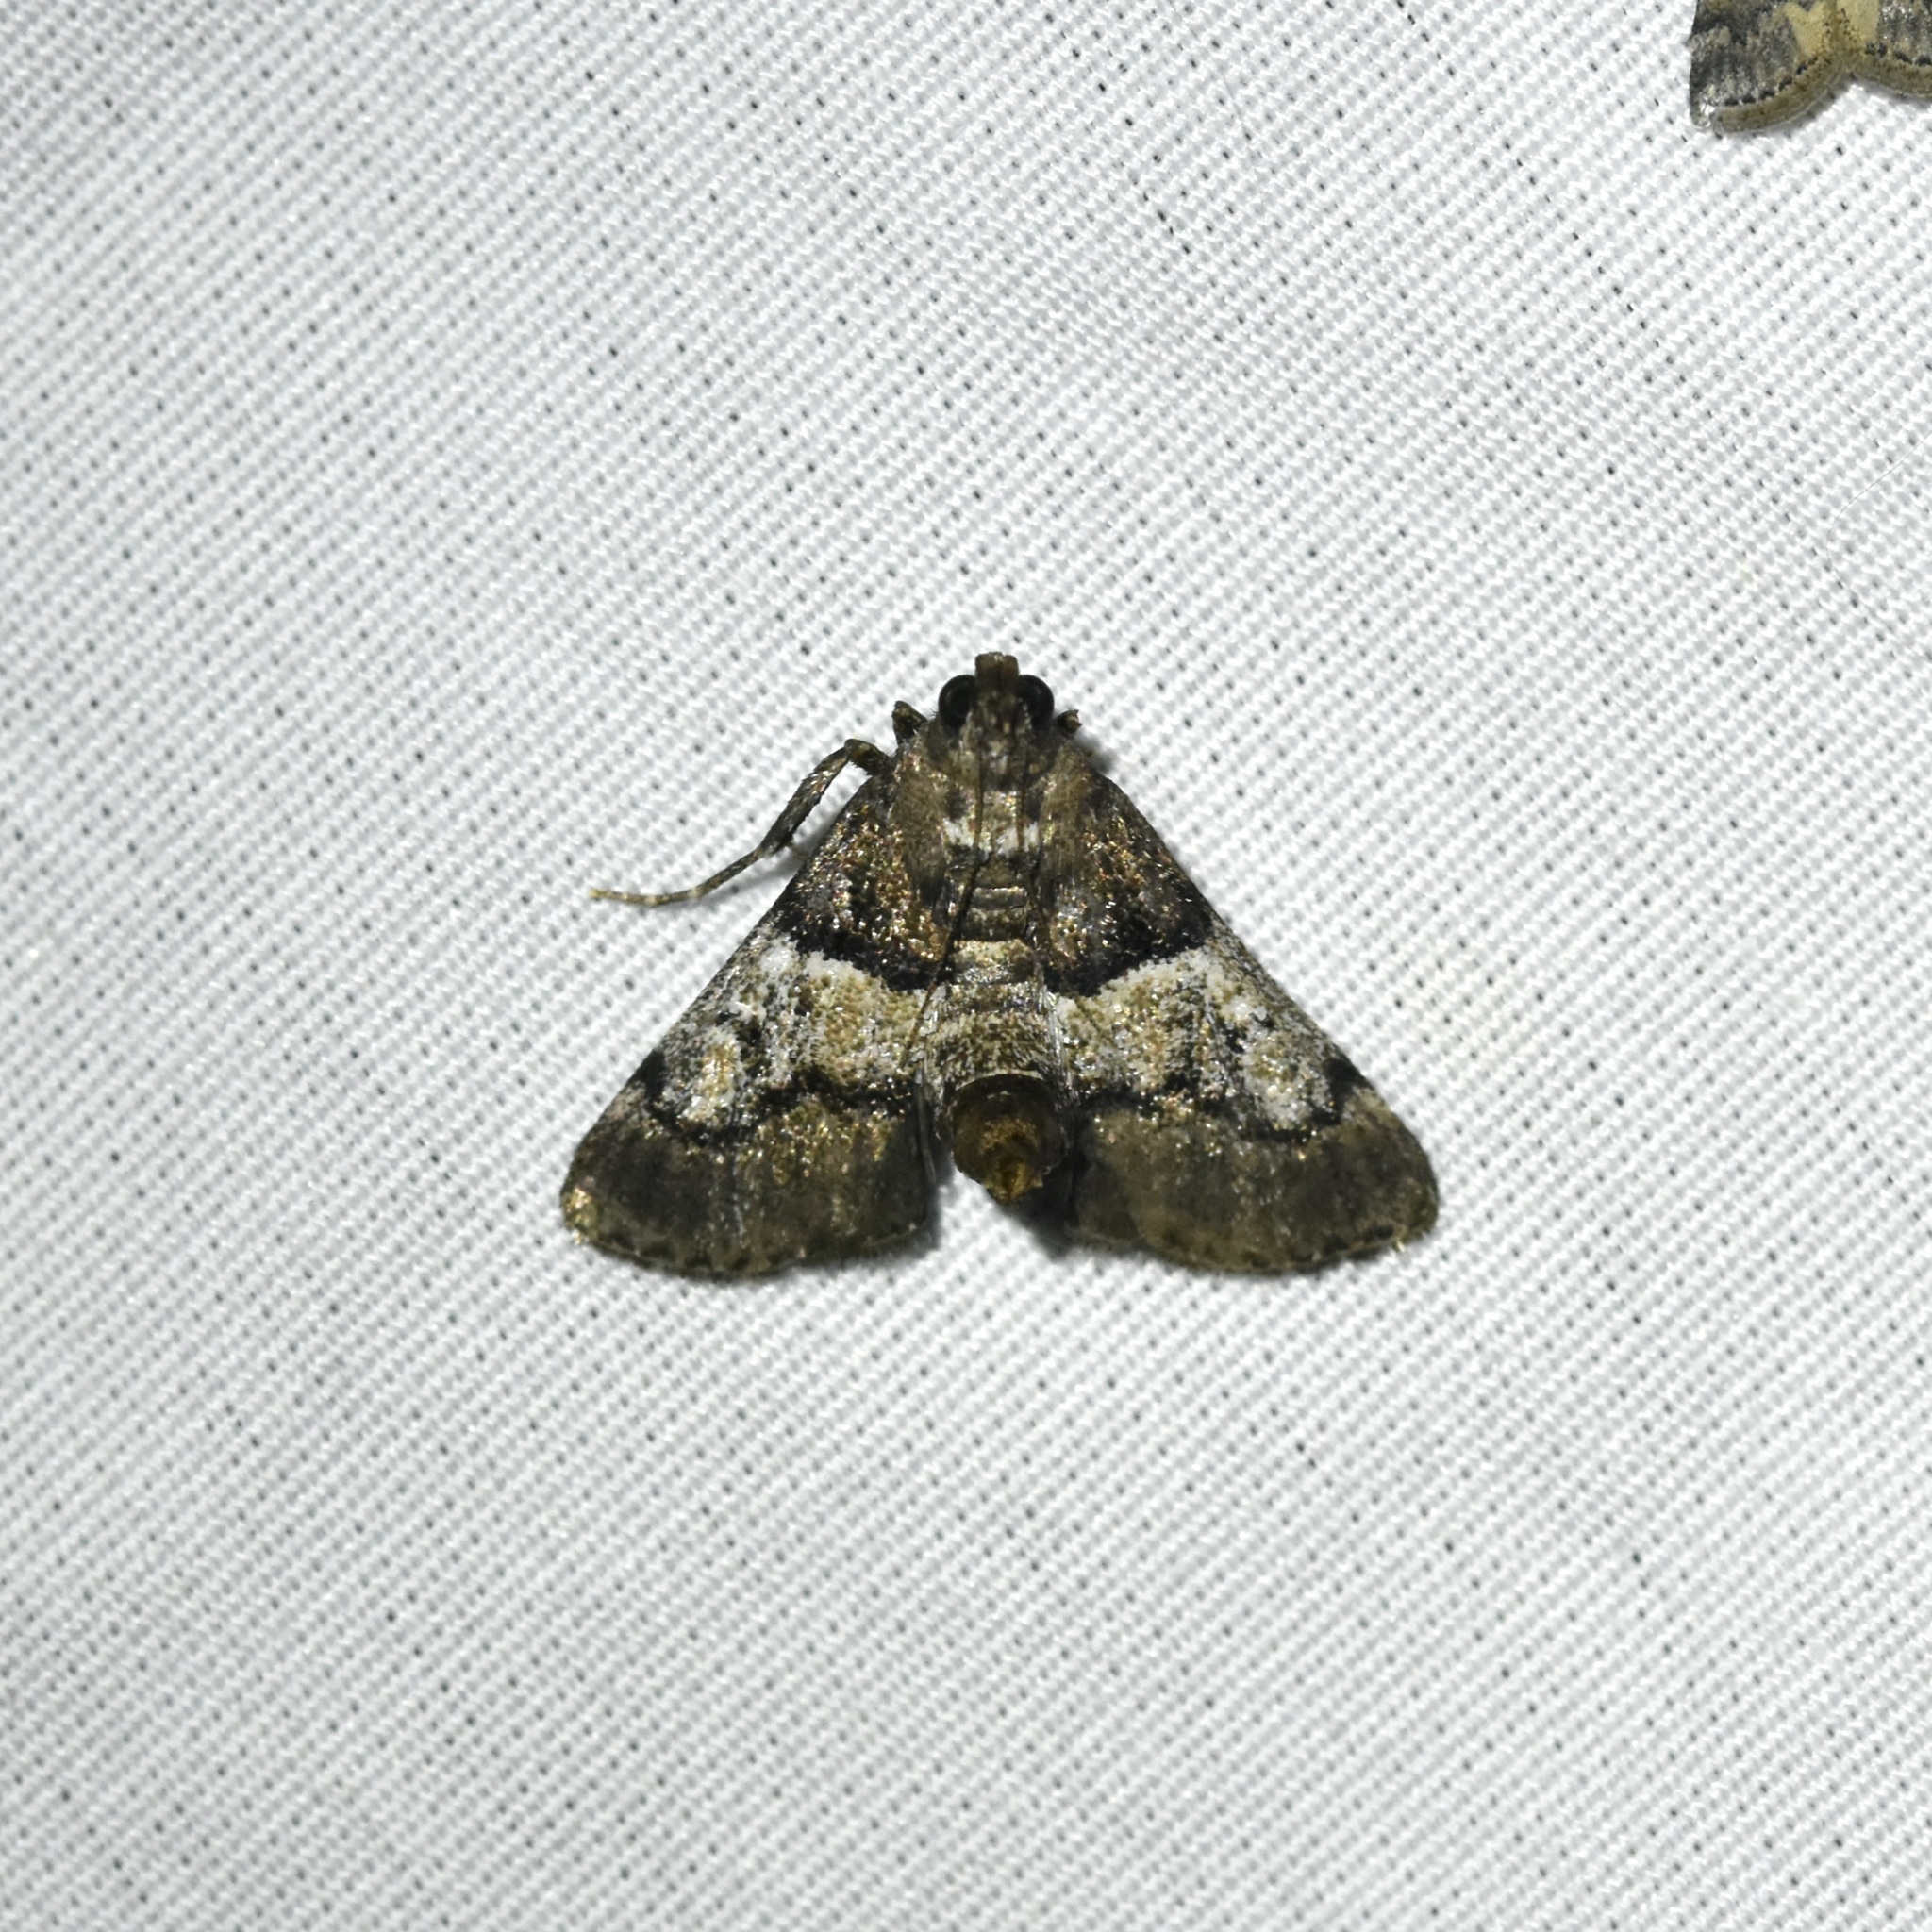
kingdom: Animalia
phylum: Arthropoda
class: Insecta
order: Lepidoptera
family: Pyralidae
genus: Macalla
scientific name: Macalla zelleri
